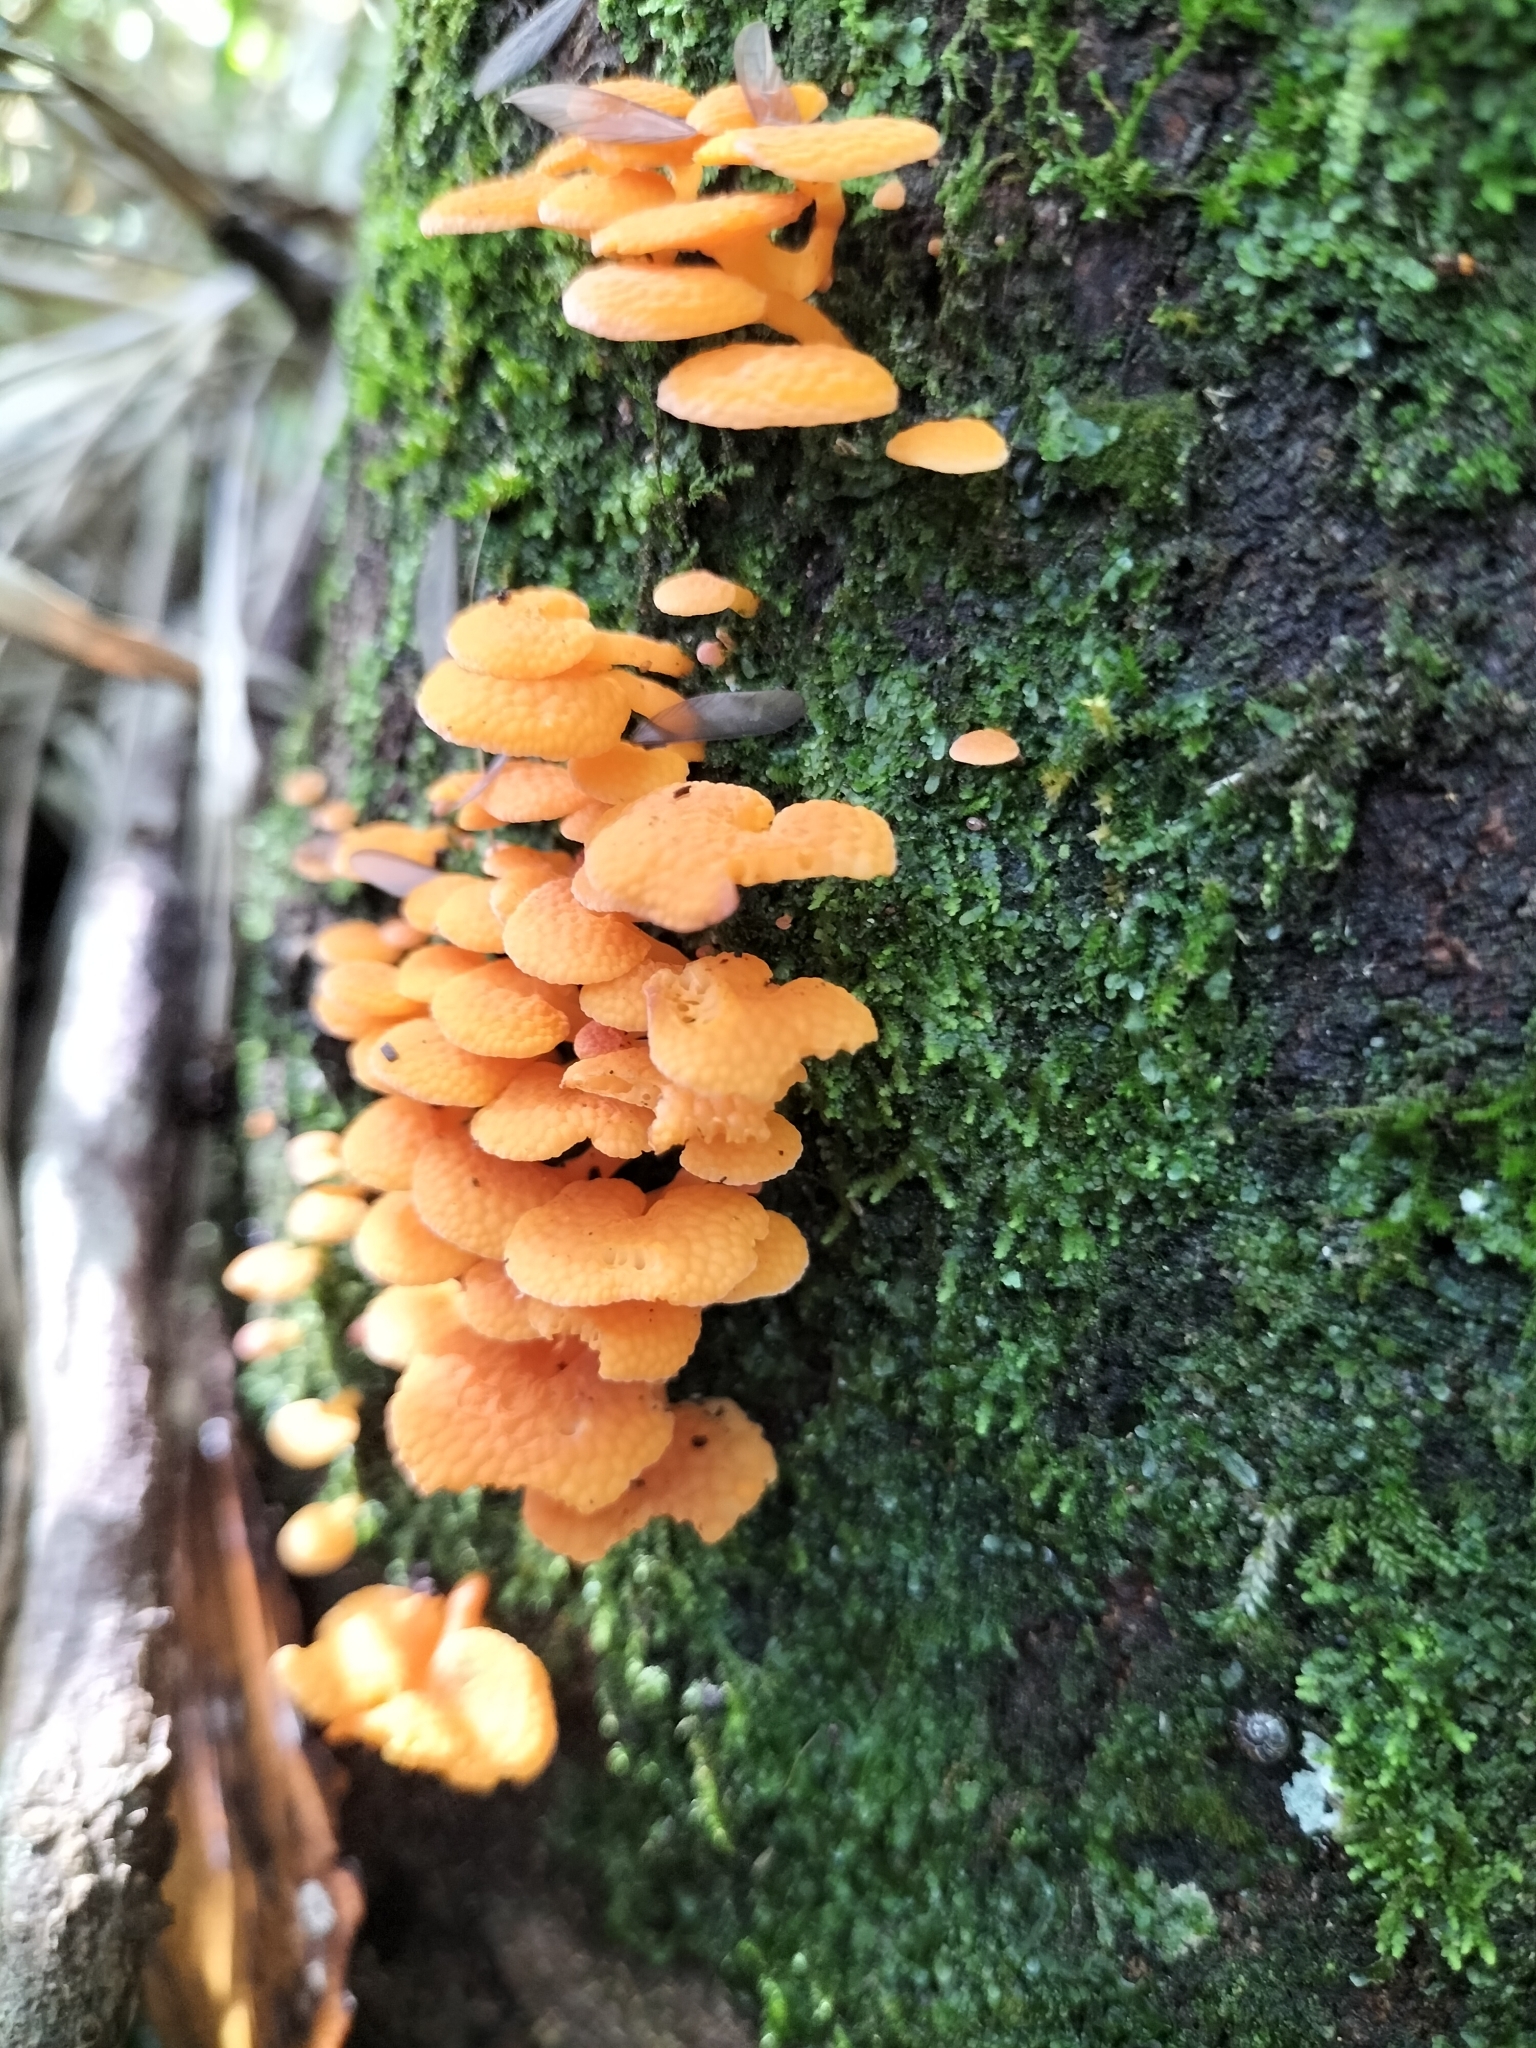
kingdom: Fungi
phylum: Basidiomycota
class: Agaricomycetes
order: Agaricales
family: Mycenaceae
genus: Favolaschia
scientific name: Favolaschia claudopus
